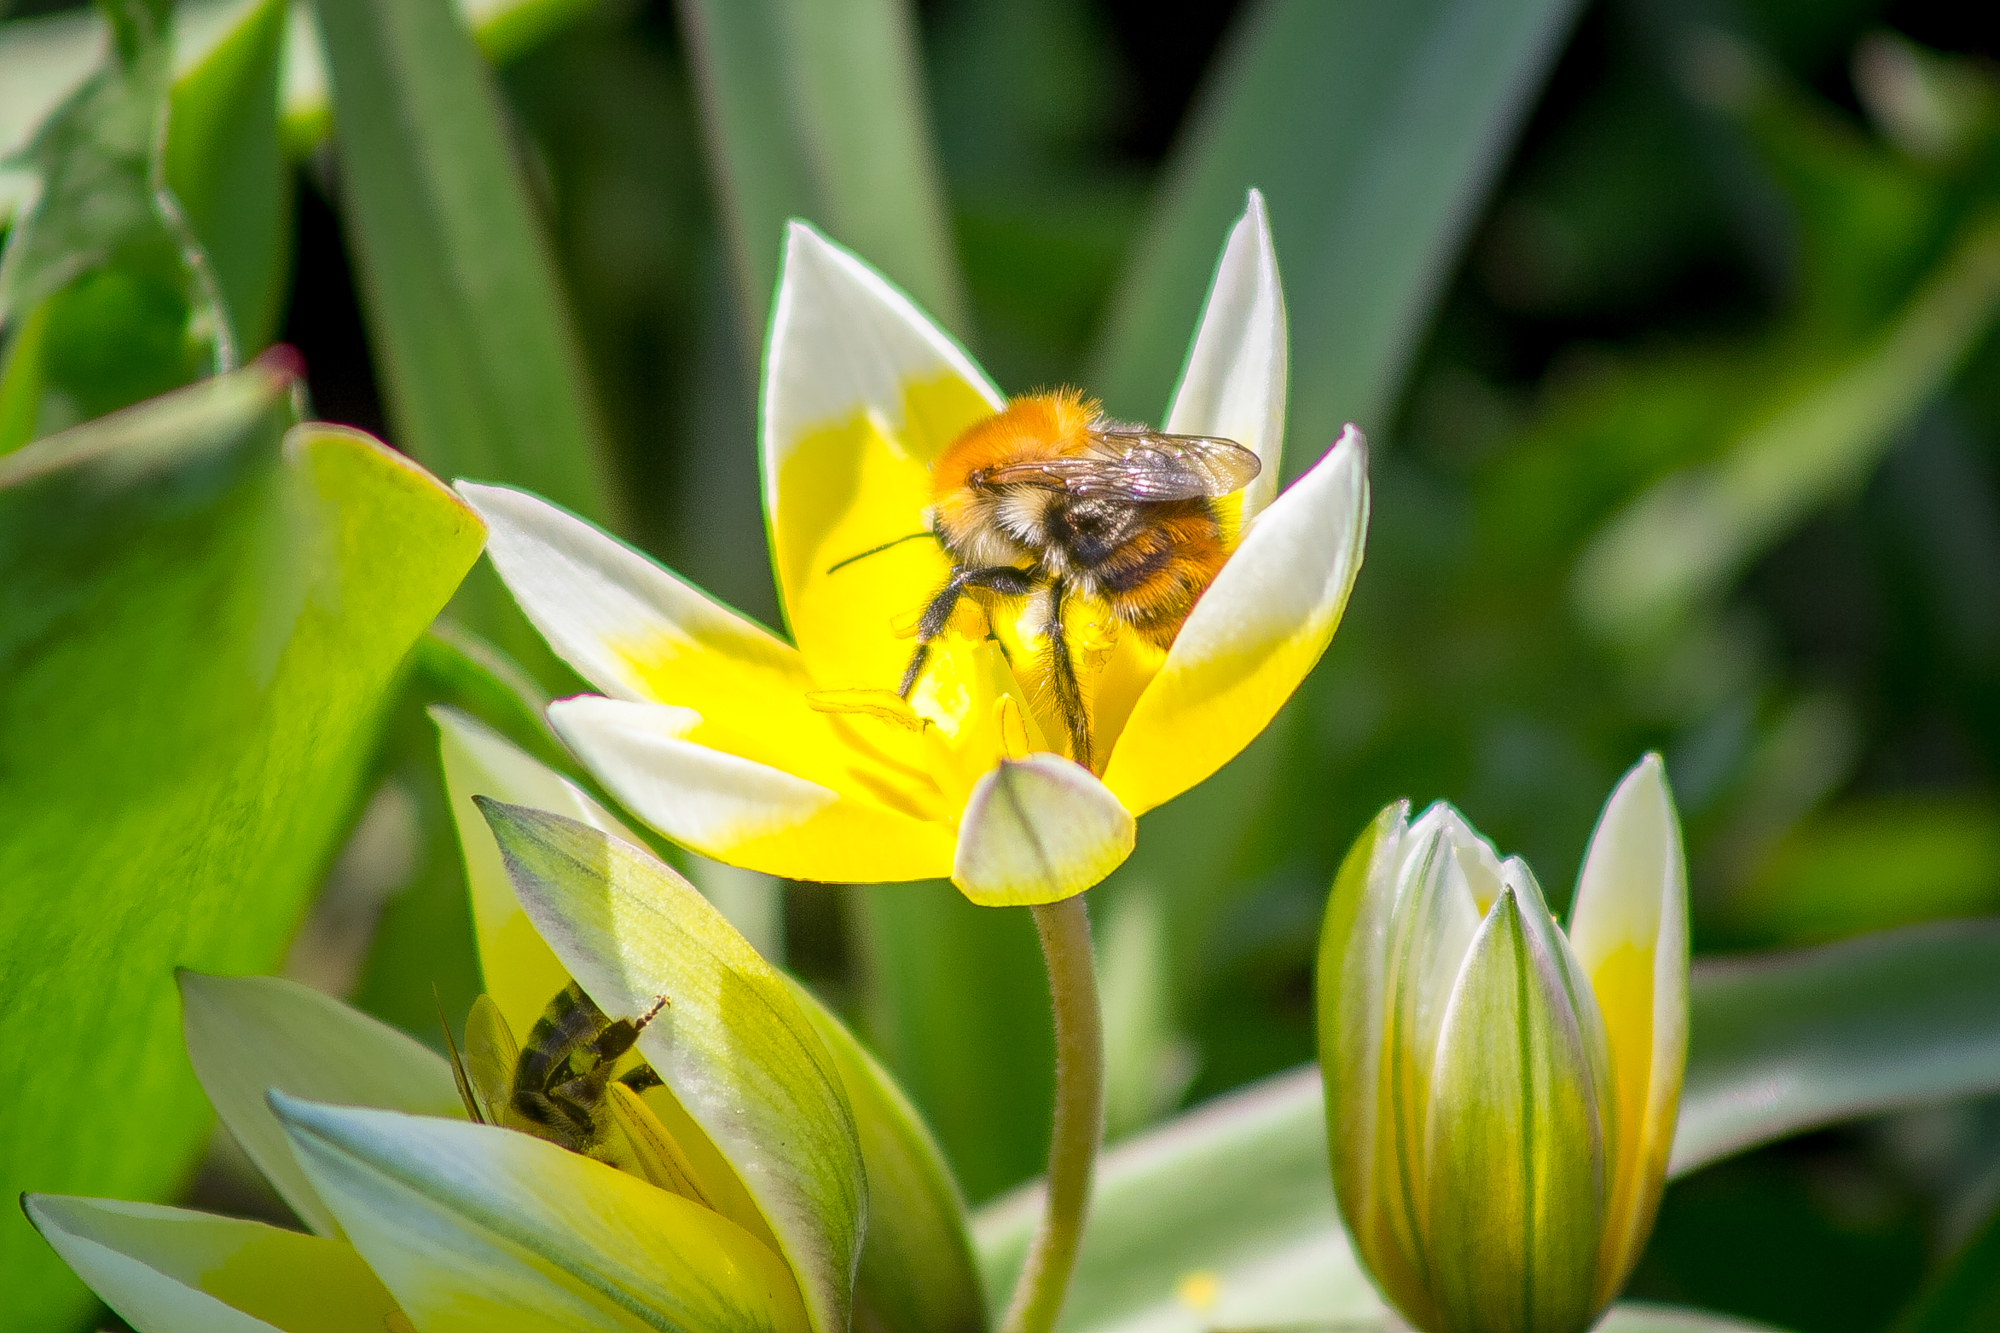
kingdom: Animalia
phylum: Arthropoda
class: Insecta
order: Hymenoptera
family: Apidae
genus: Bombus
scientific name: Bombus pascuorum
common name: Common carder bee
